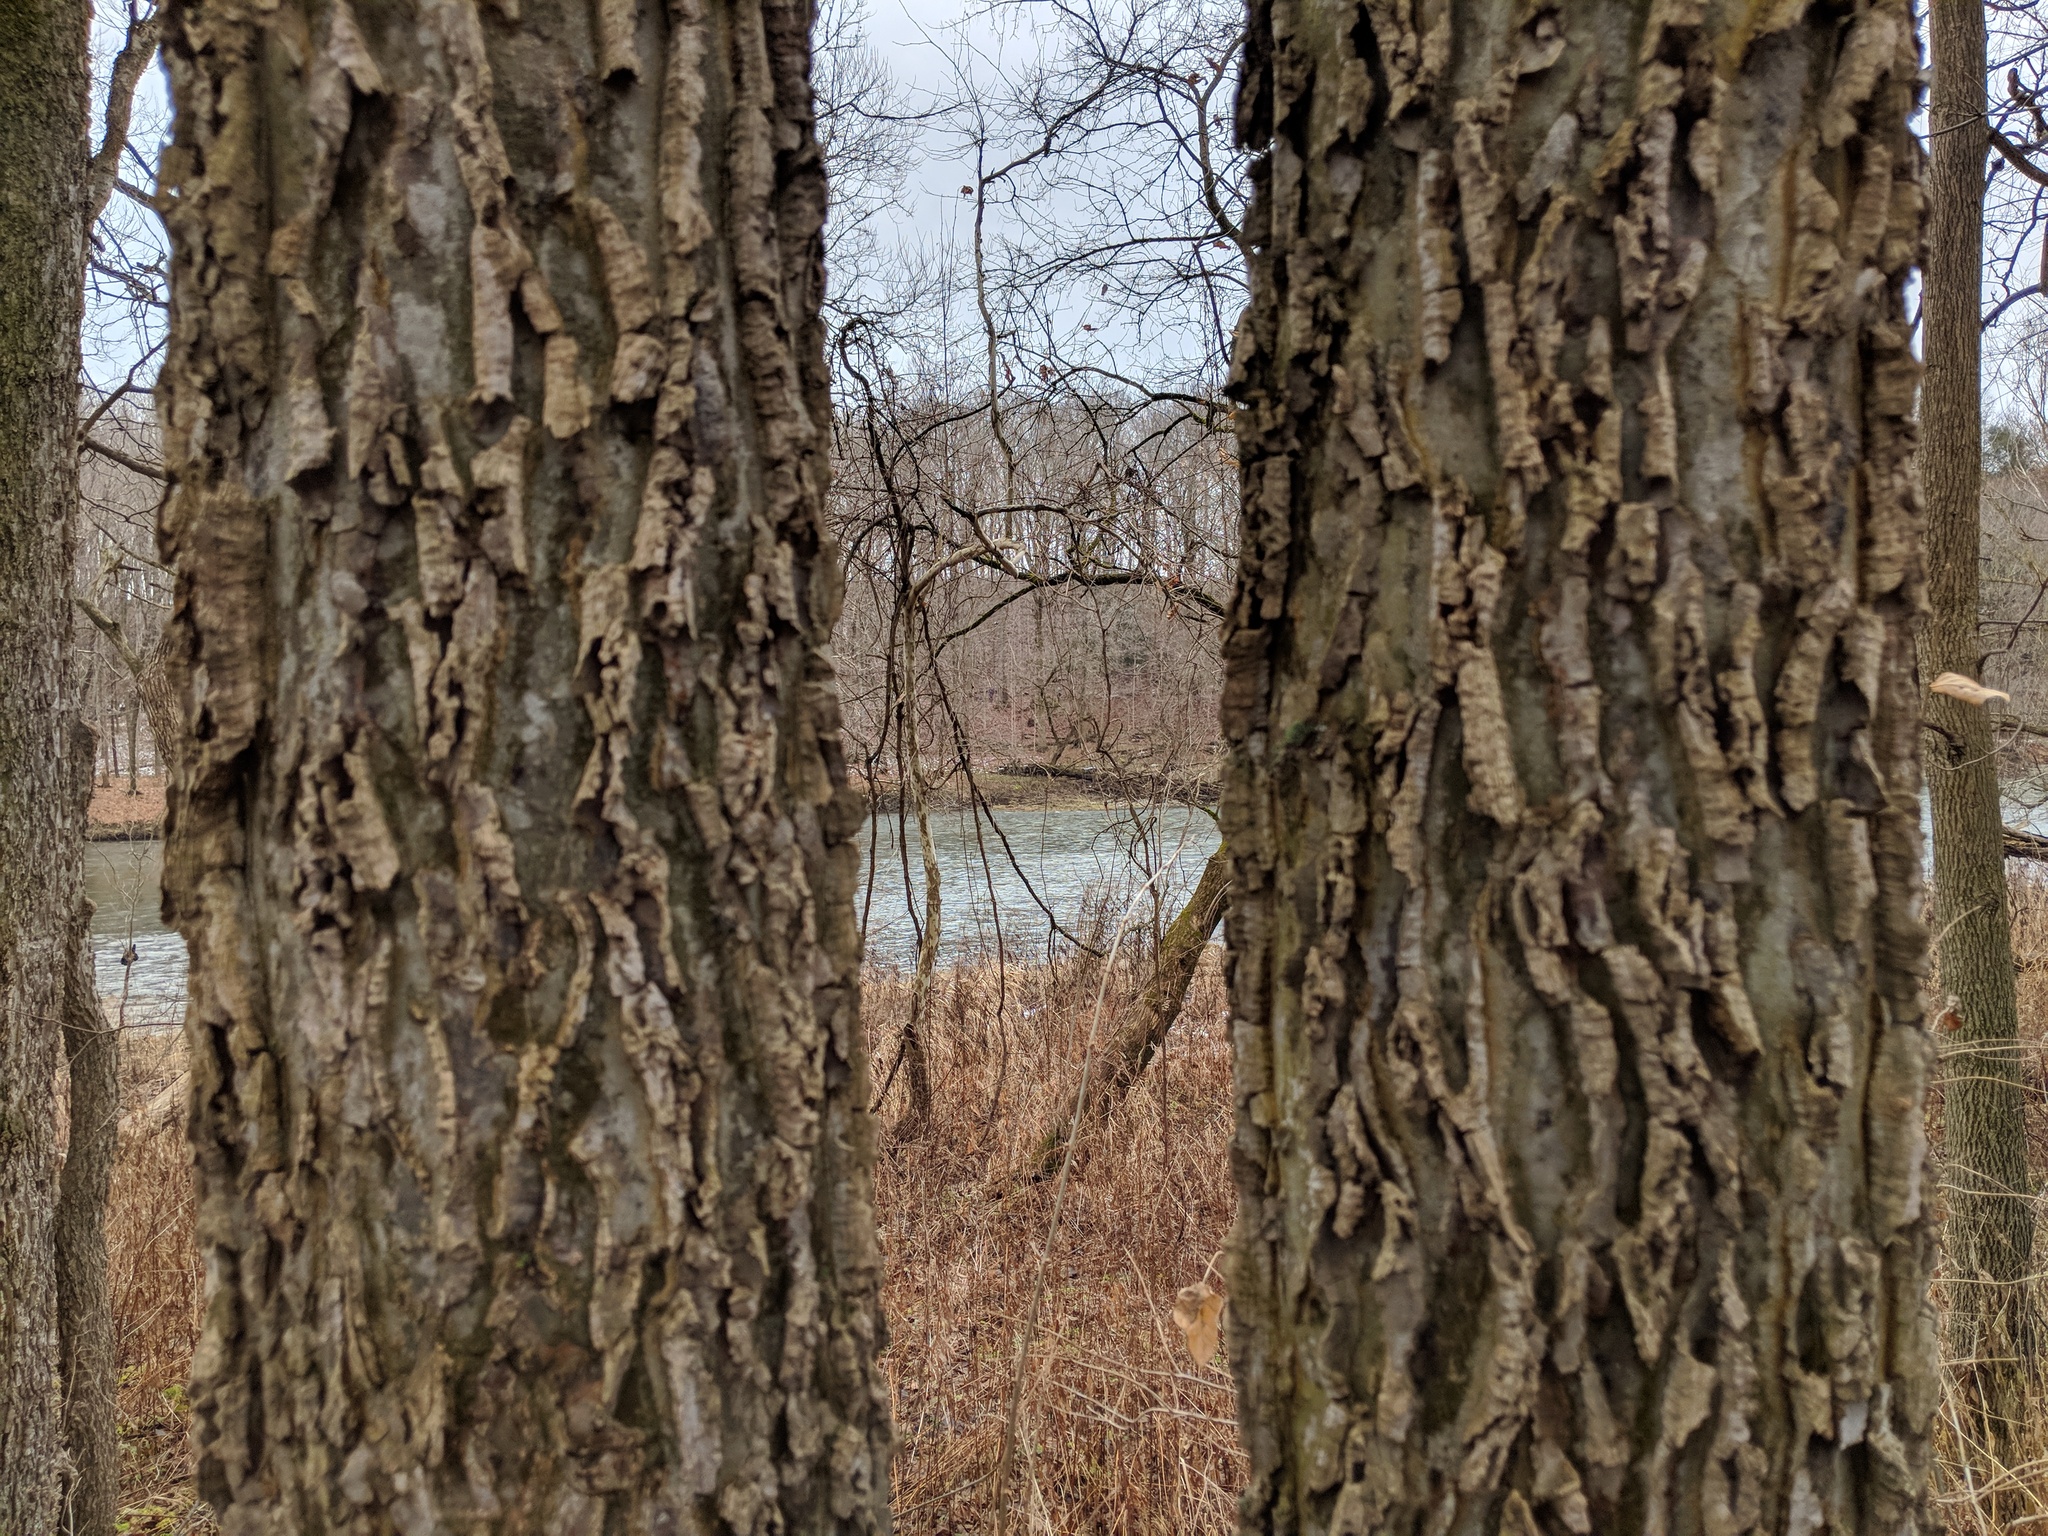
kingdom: Plantae
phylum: Tracheophyta
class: Magnoliopsida
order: Rosales
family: Cannabaceae
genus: Celtis
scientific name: Celtis occidentalis
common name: Common hackberry
